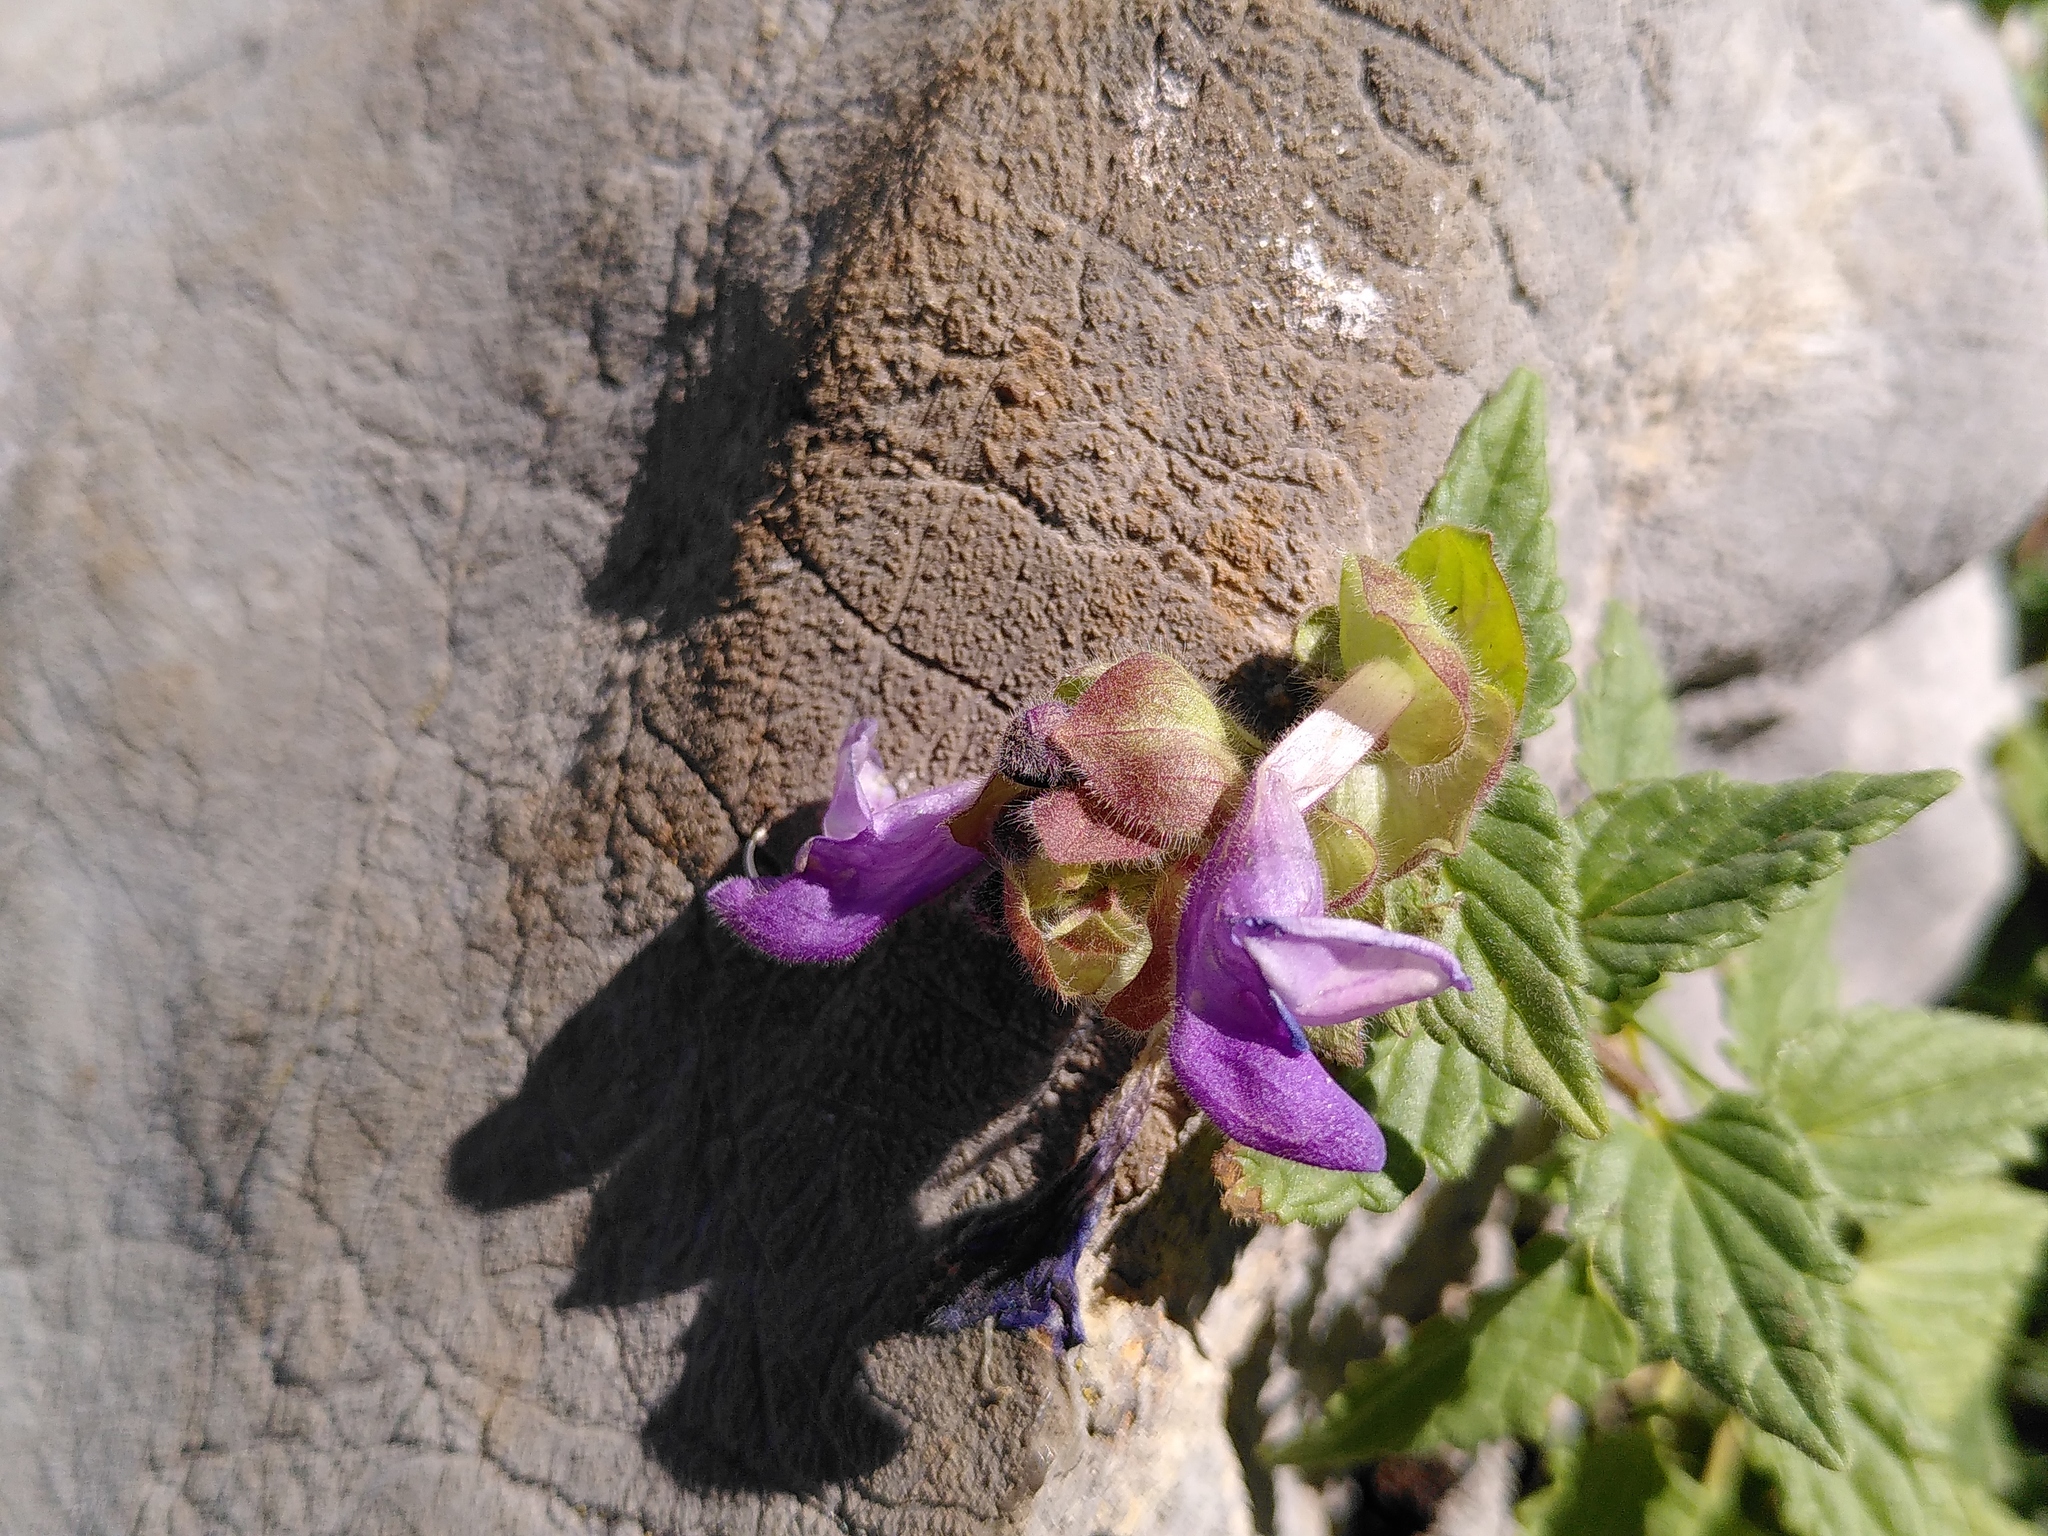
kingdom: Plantae
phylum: Tracheophyta
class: Magnoliopsida
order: Lamiales
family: Lamiaceae
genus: Scutellaria
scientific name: Scutellaria alpina
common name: Alpine scullcap
